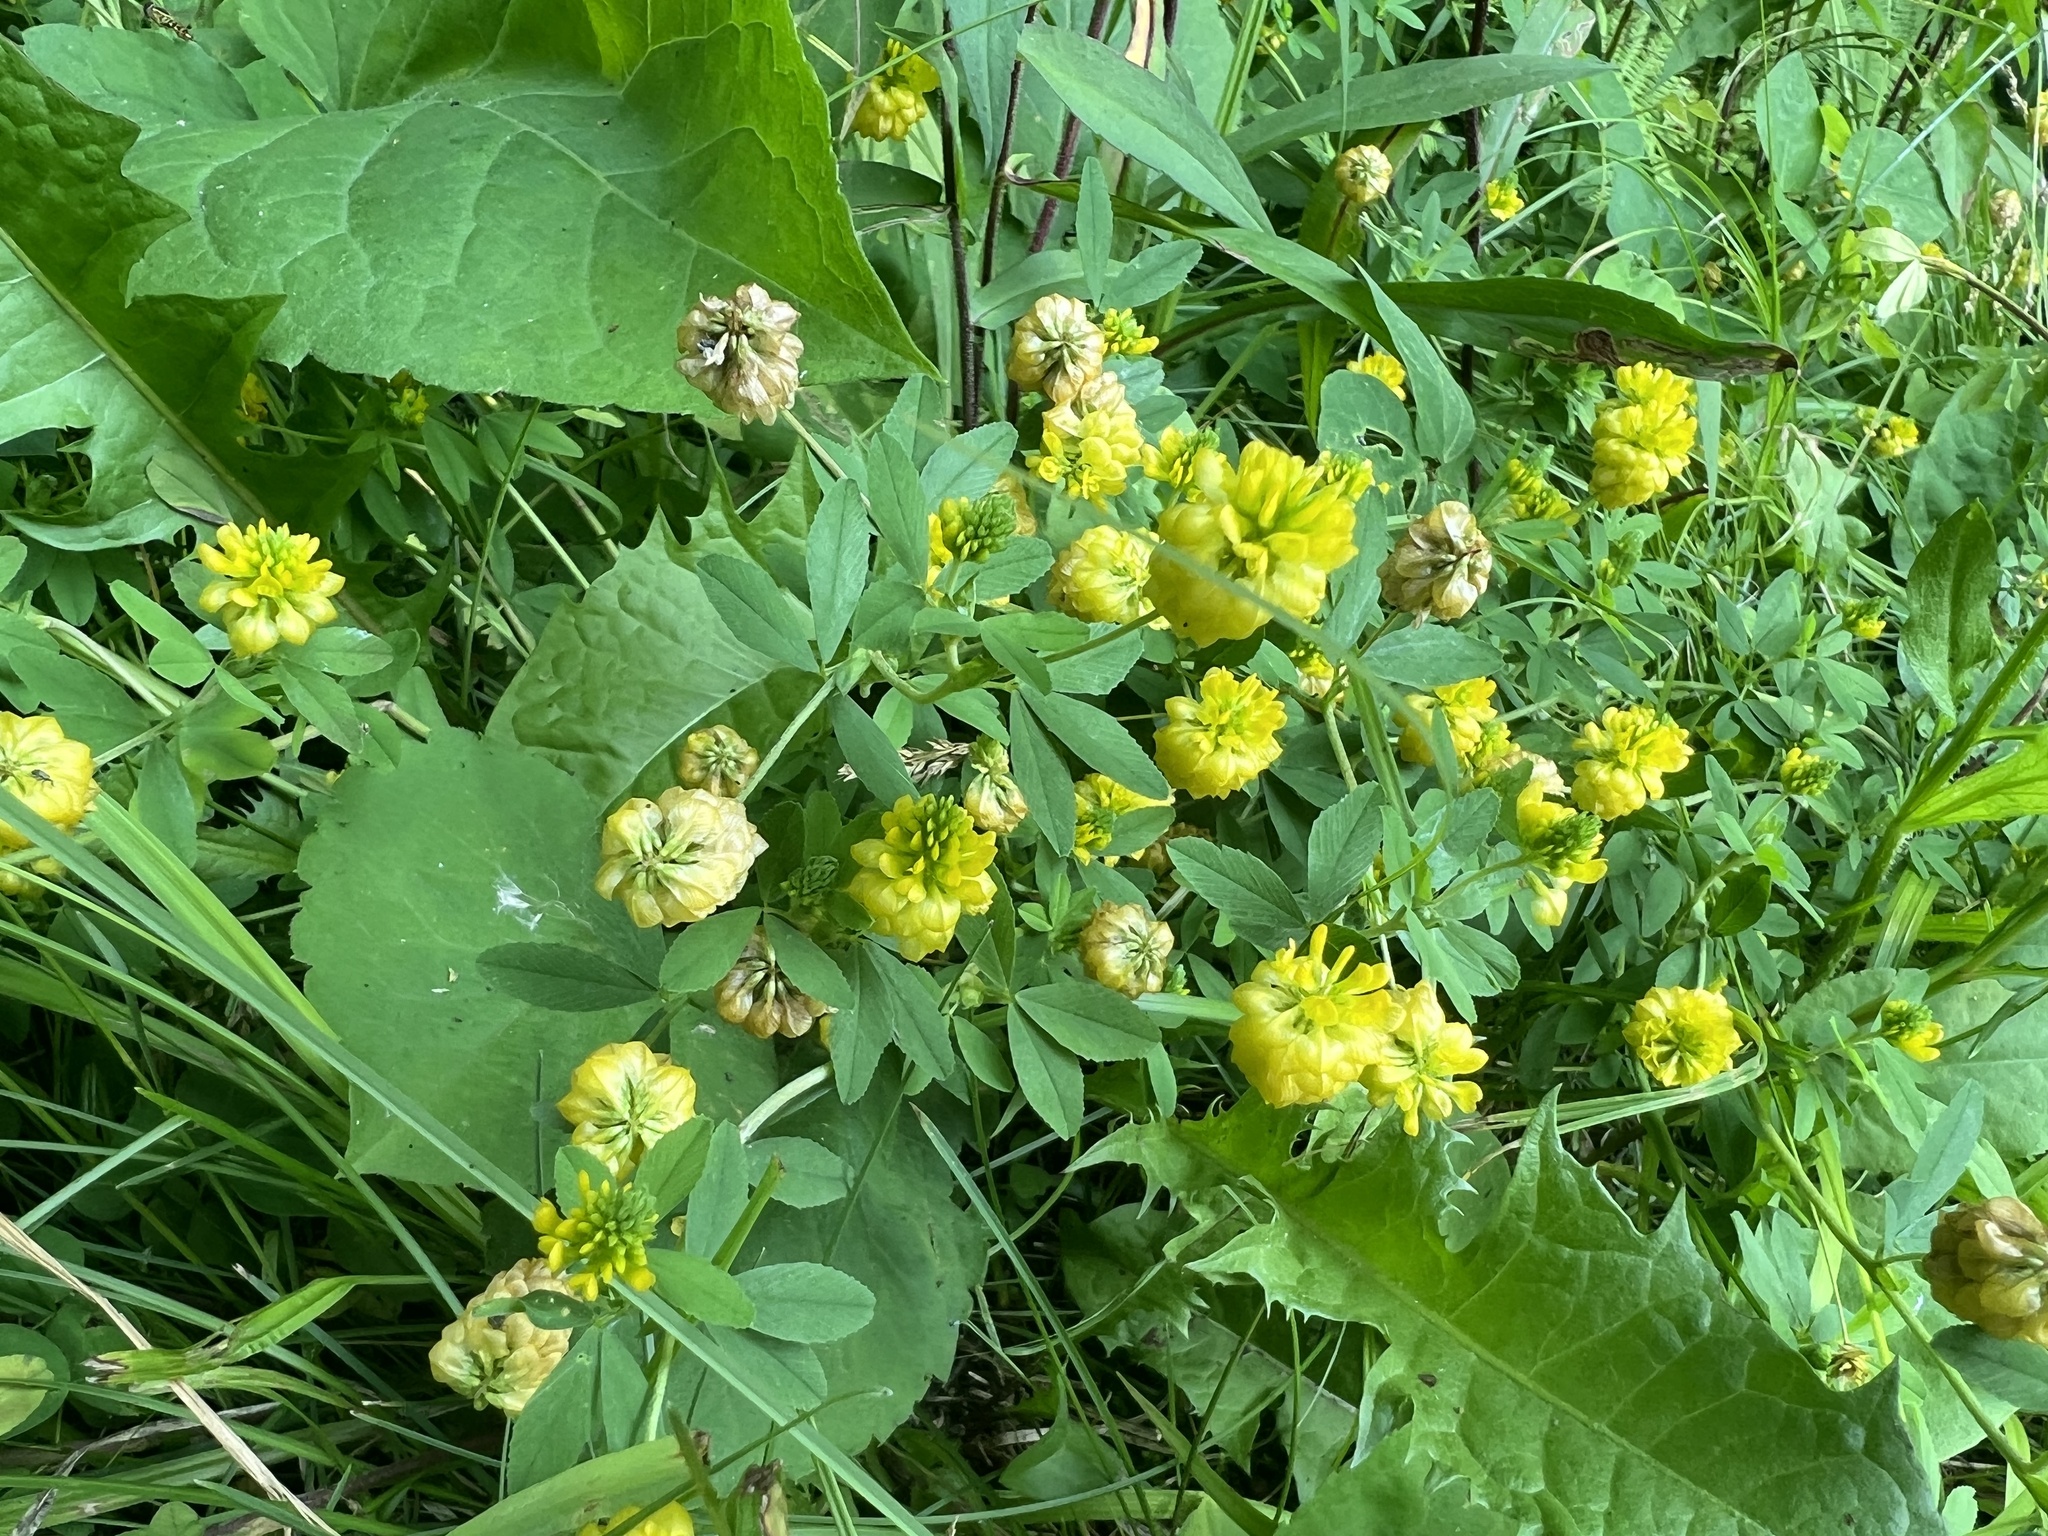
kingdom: Plantae
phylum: Tracheophyta
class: Magnoliopsida
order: Fabales
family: Fabaceae
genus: Trifolium
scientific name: Trifolium aureum
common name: Golden clover
